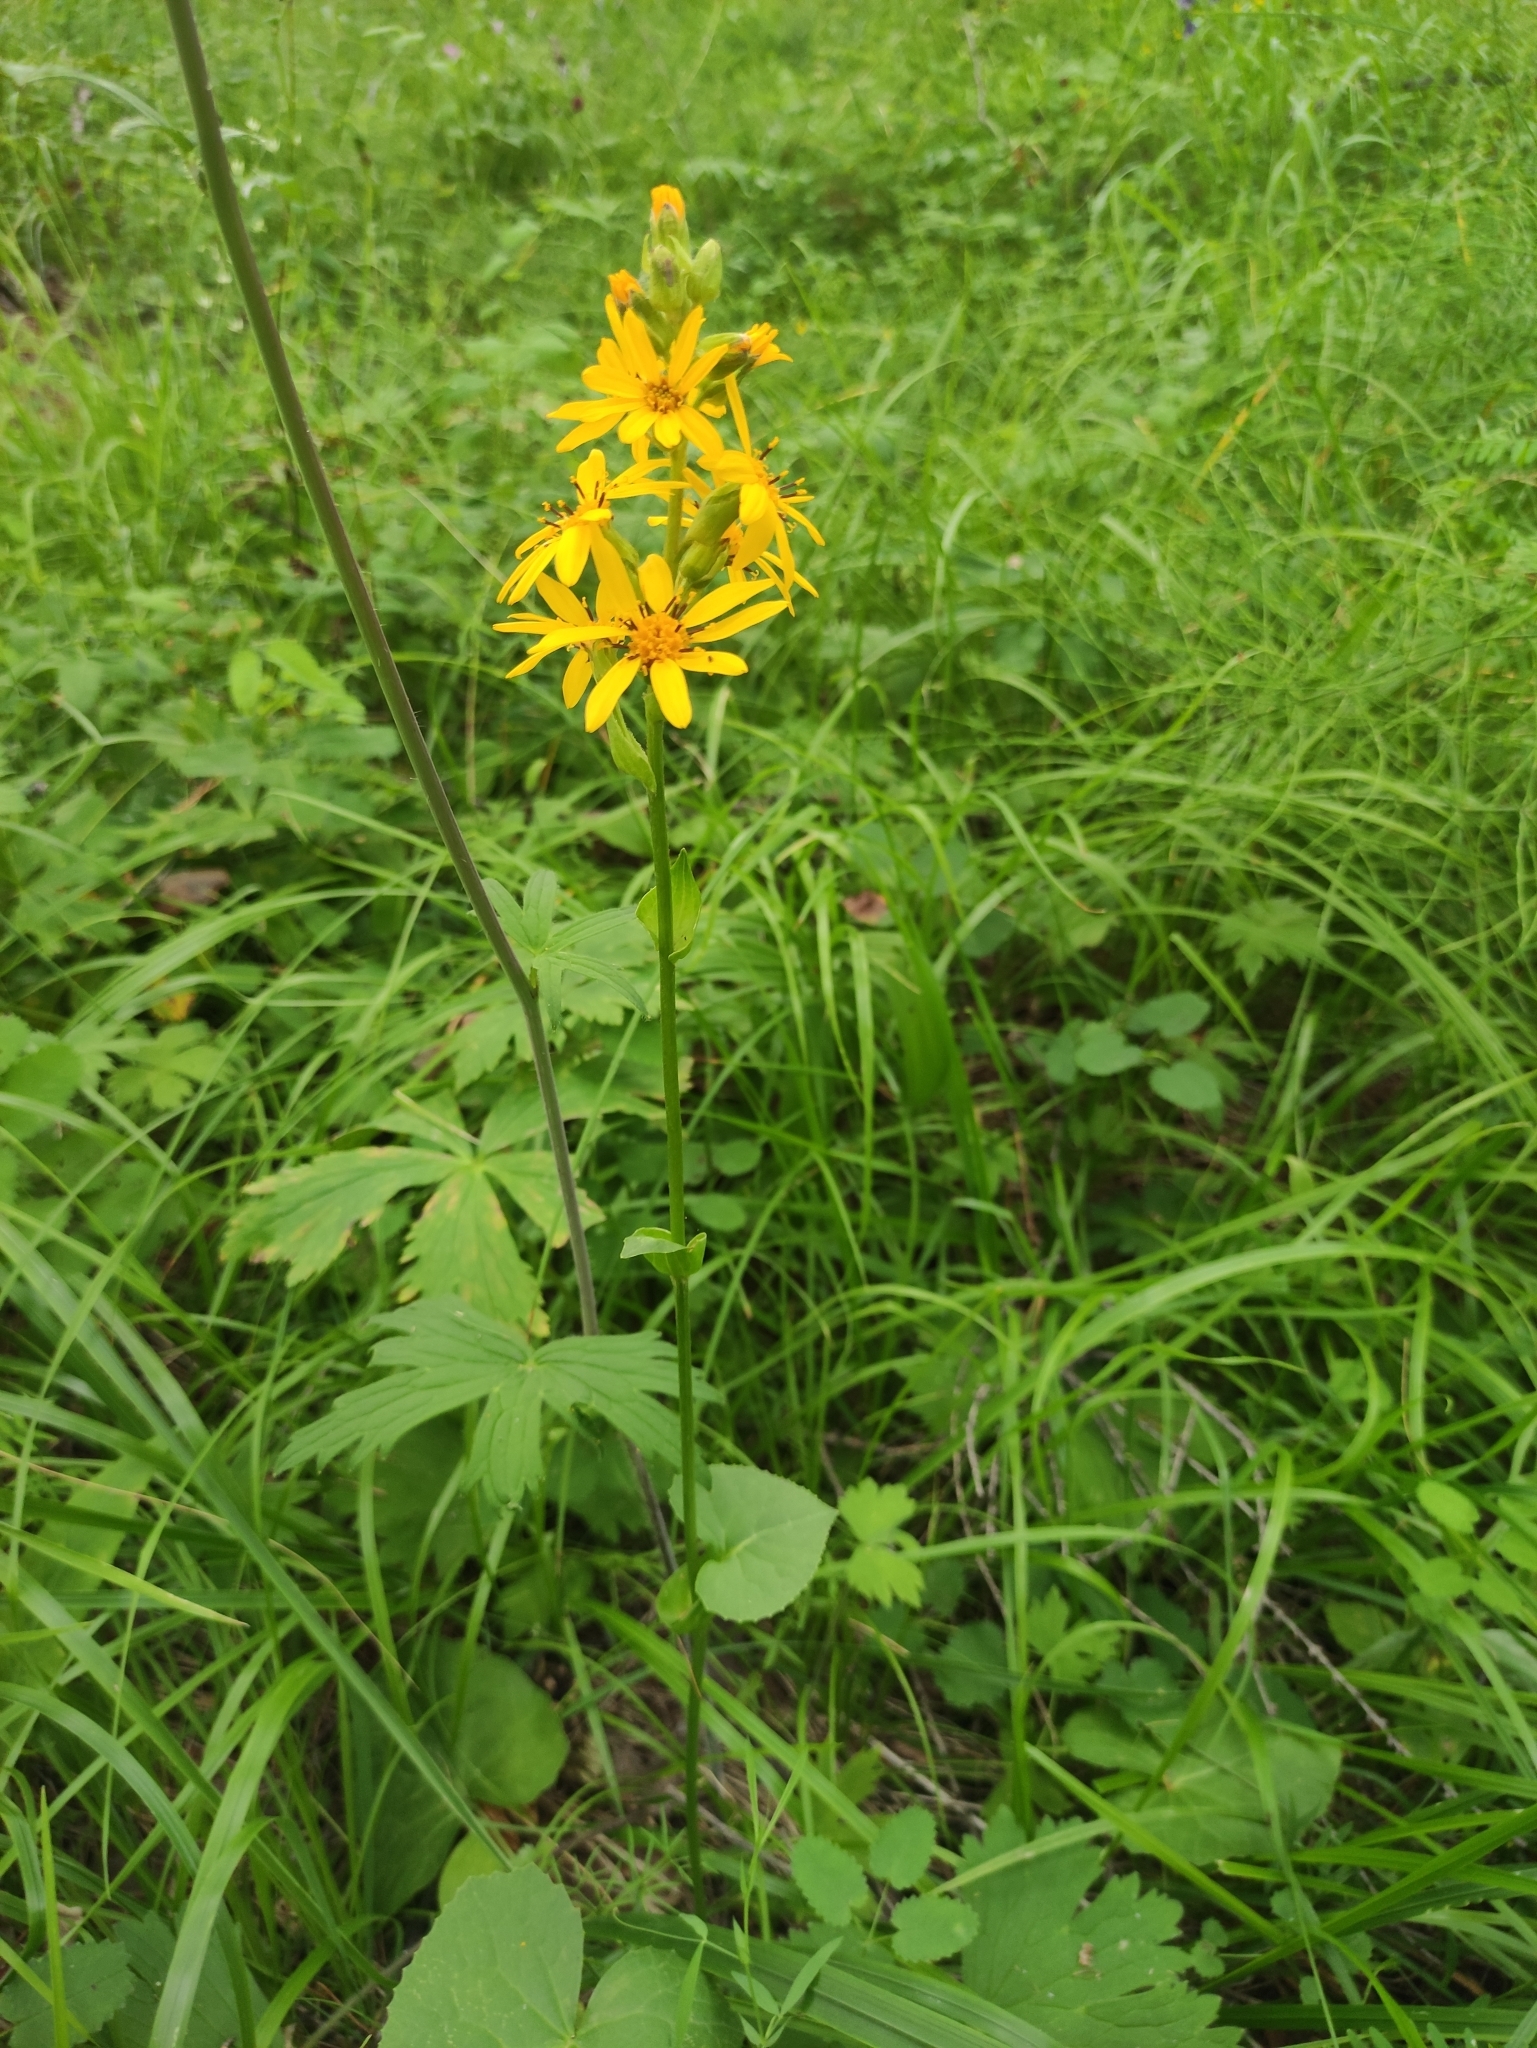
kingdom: Plantae
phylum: Tracheophyta
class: Magnoliopsida
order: Asterales
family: Asteraceae
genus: Ligularia
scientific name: Ligularia sibirica
